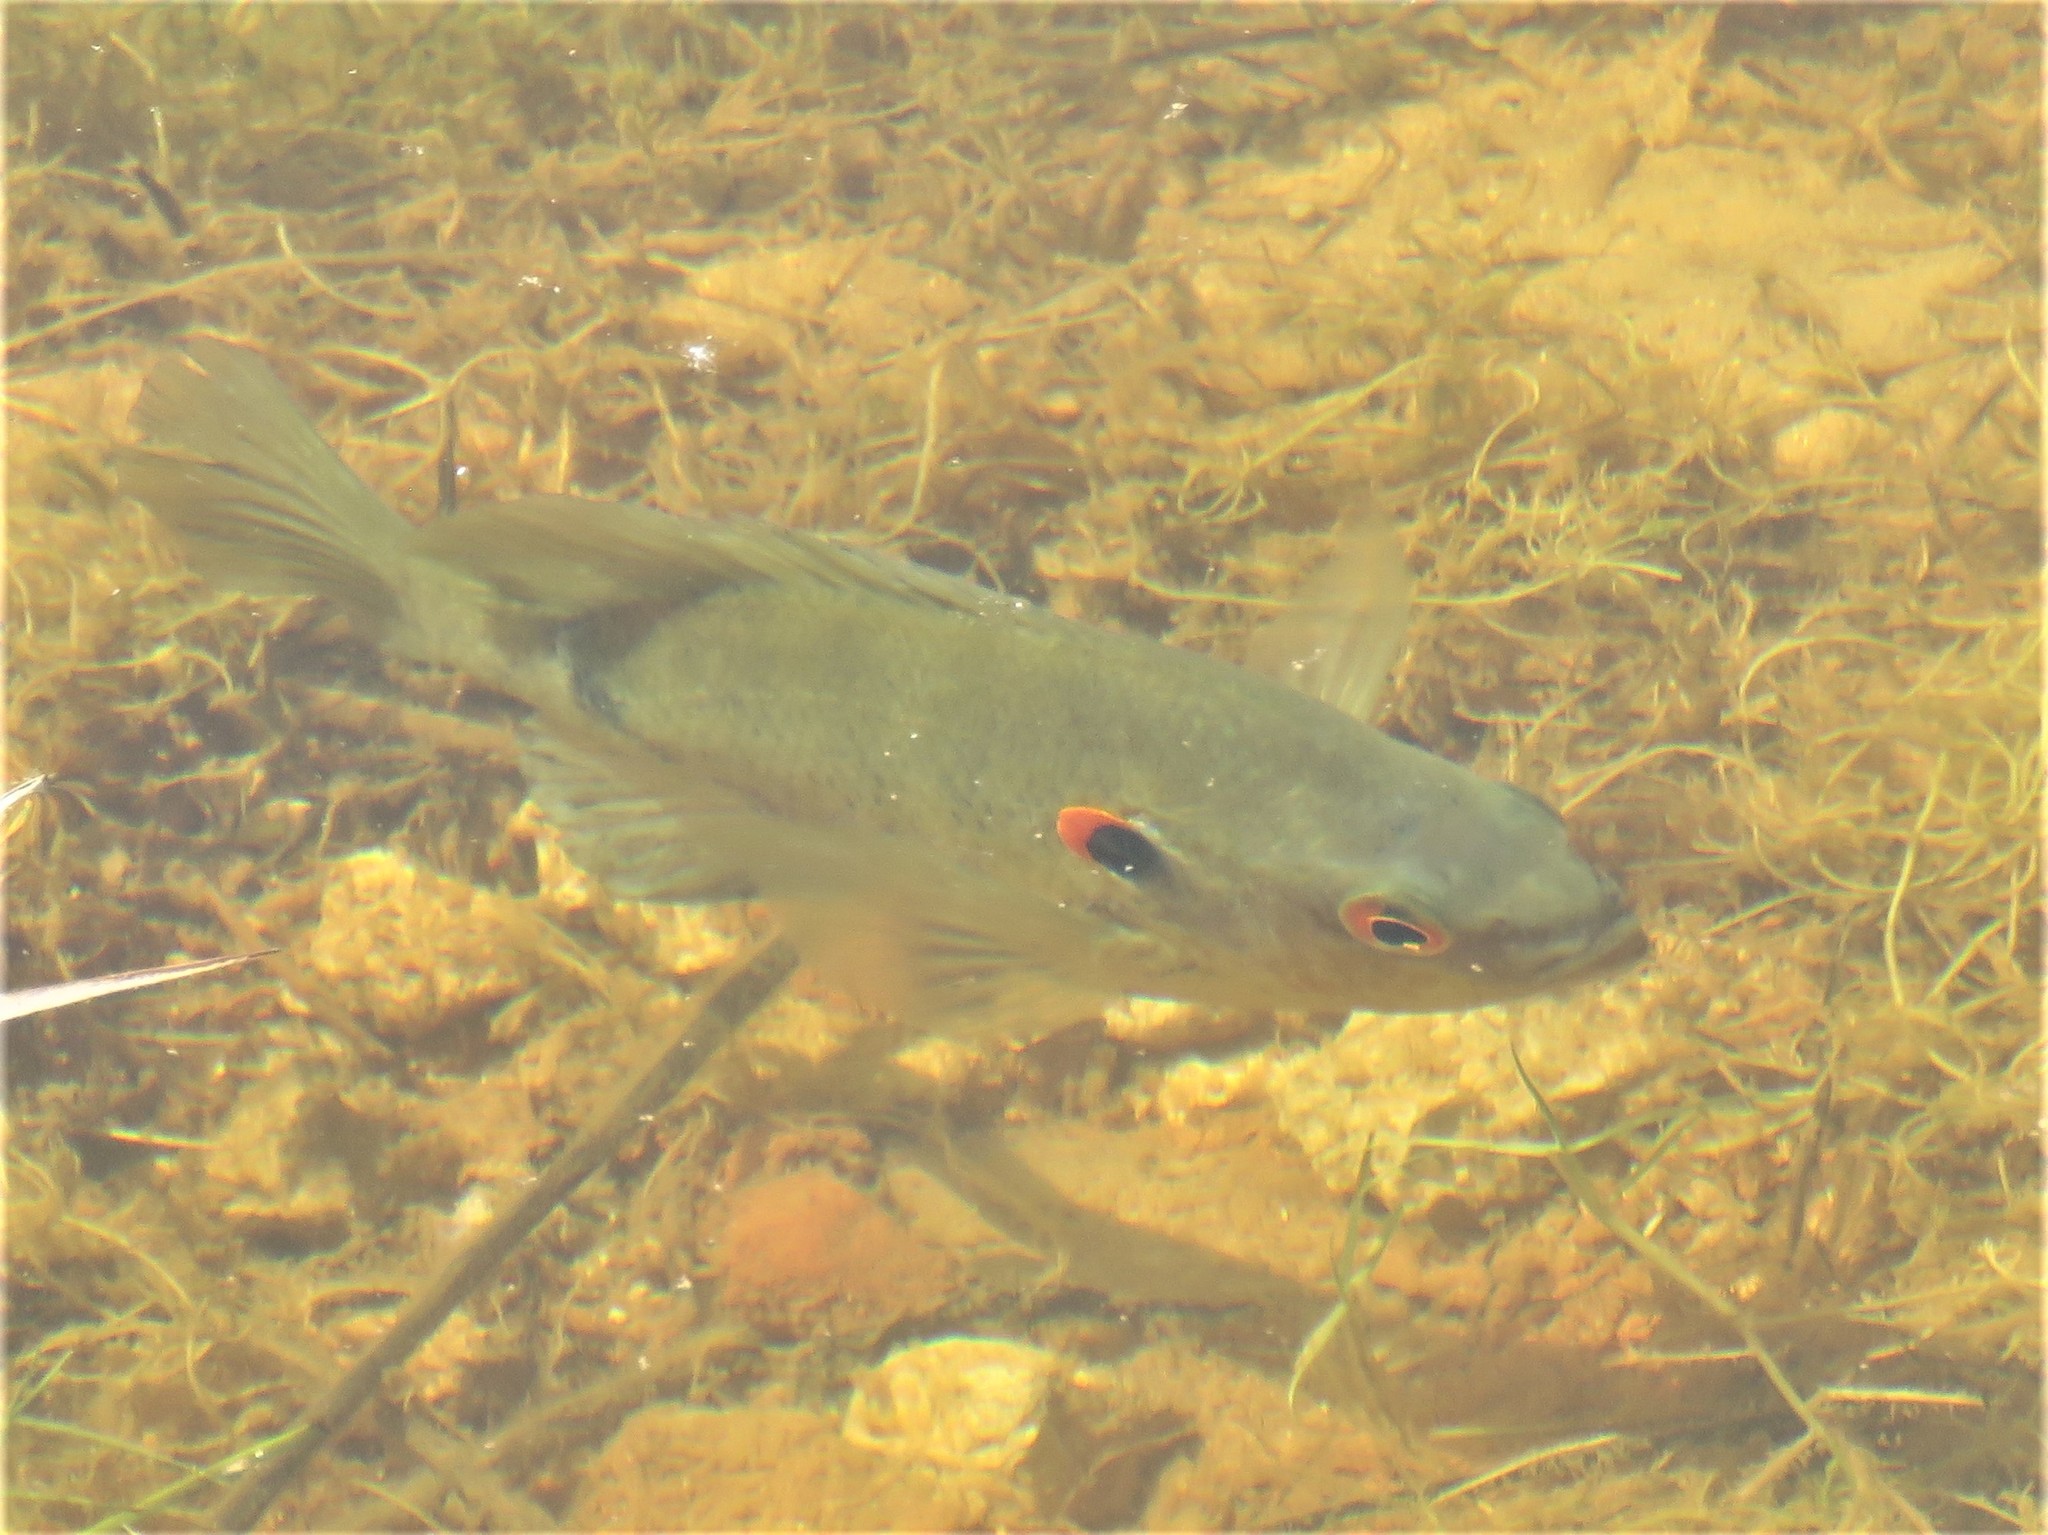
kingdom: Animalia
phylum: Chordata
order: Perciformes
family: Centrarchidae
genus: Lepomis
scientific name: Lepomis microlophus
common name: Redear sunfish
